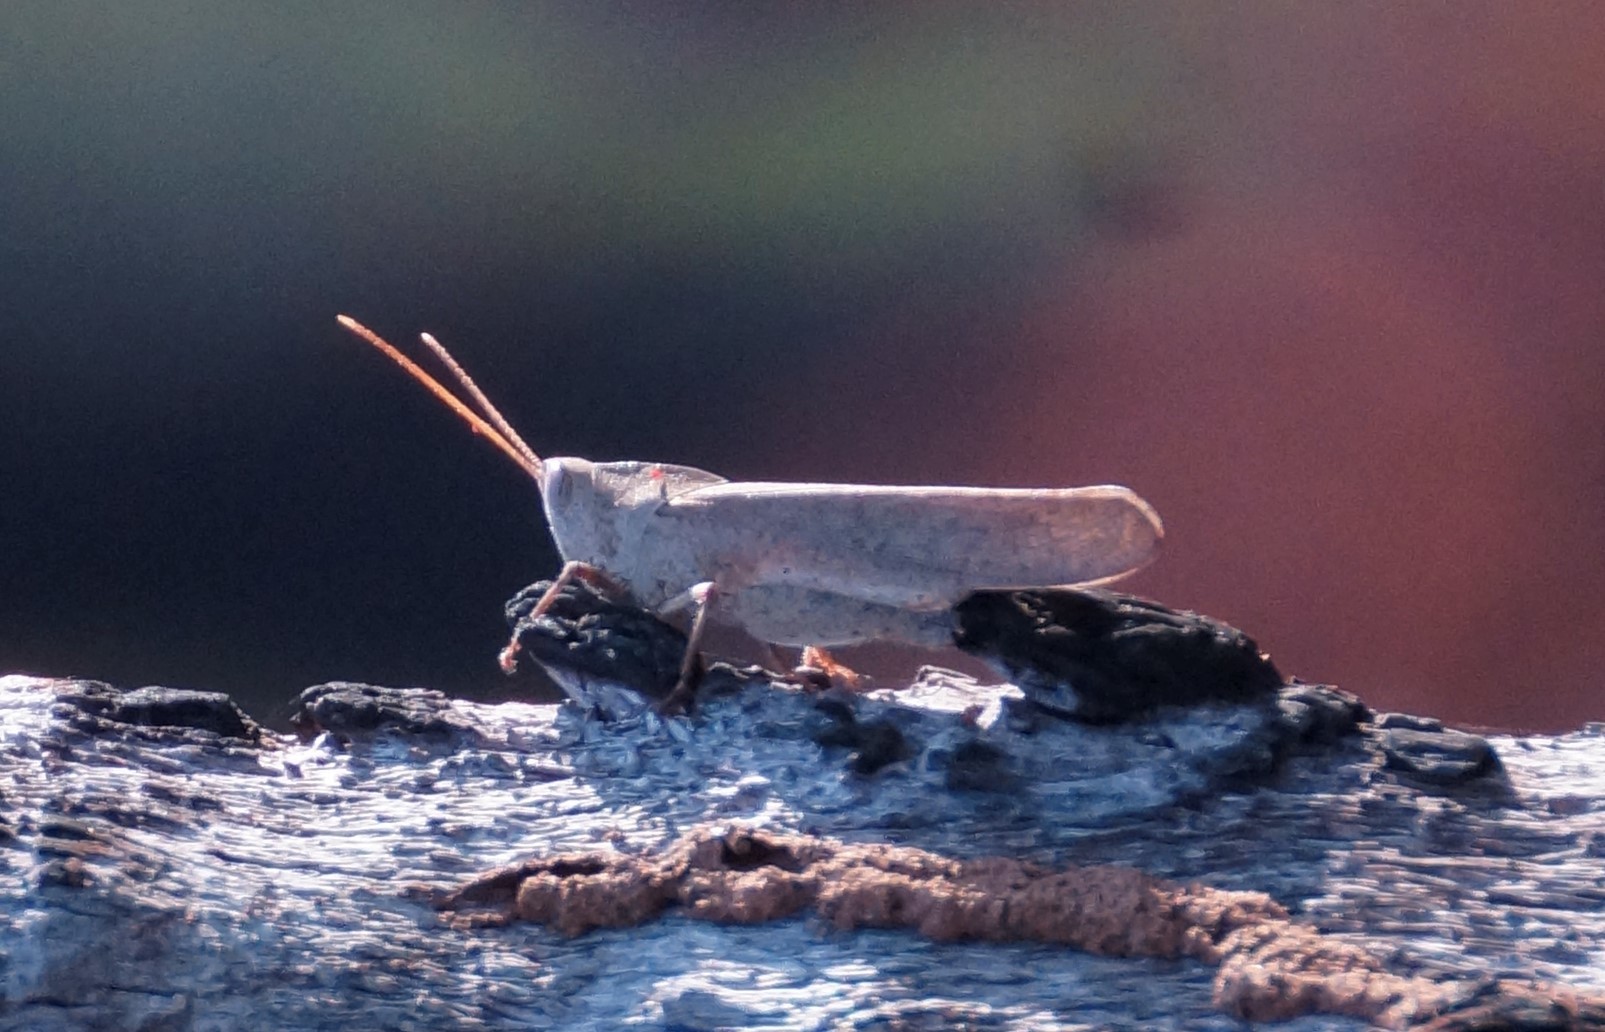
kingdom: Animalia
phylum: Arthropoda
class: Insecta
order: Orthoptera
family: Acrididae
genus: Goniaea
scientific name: Goniaea vocans
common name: Slender gumleaf grasshopper
